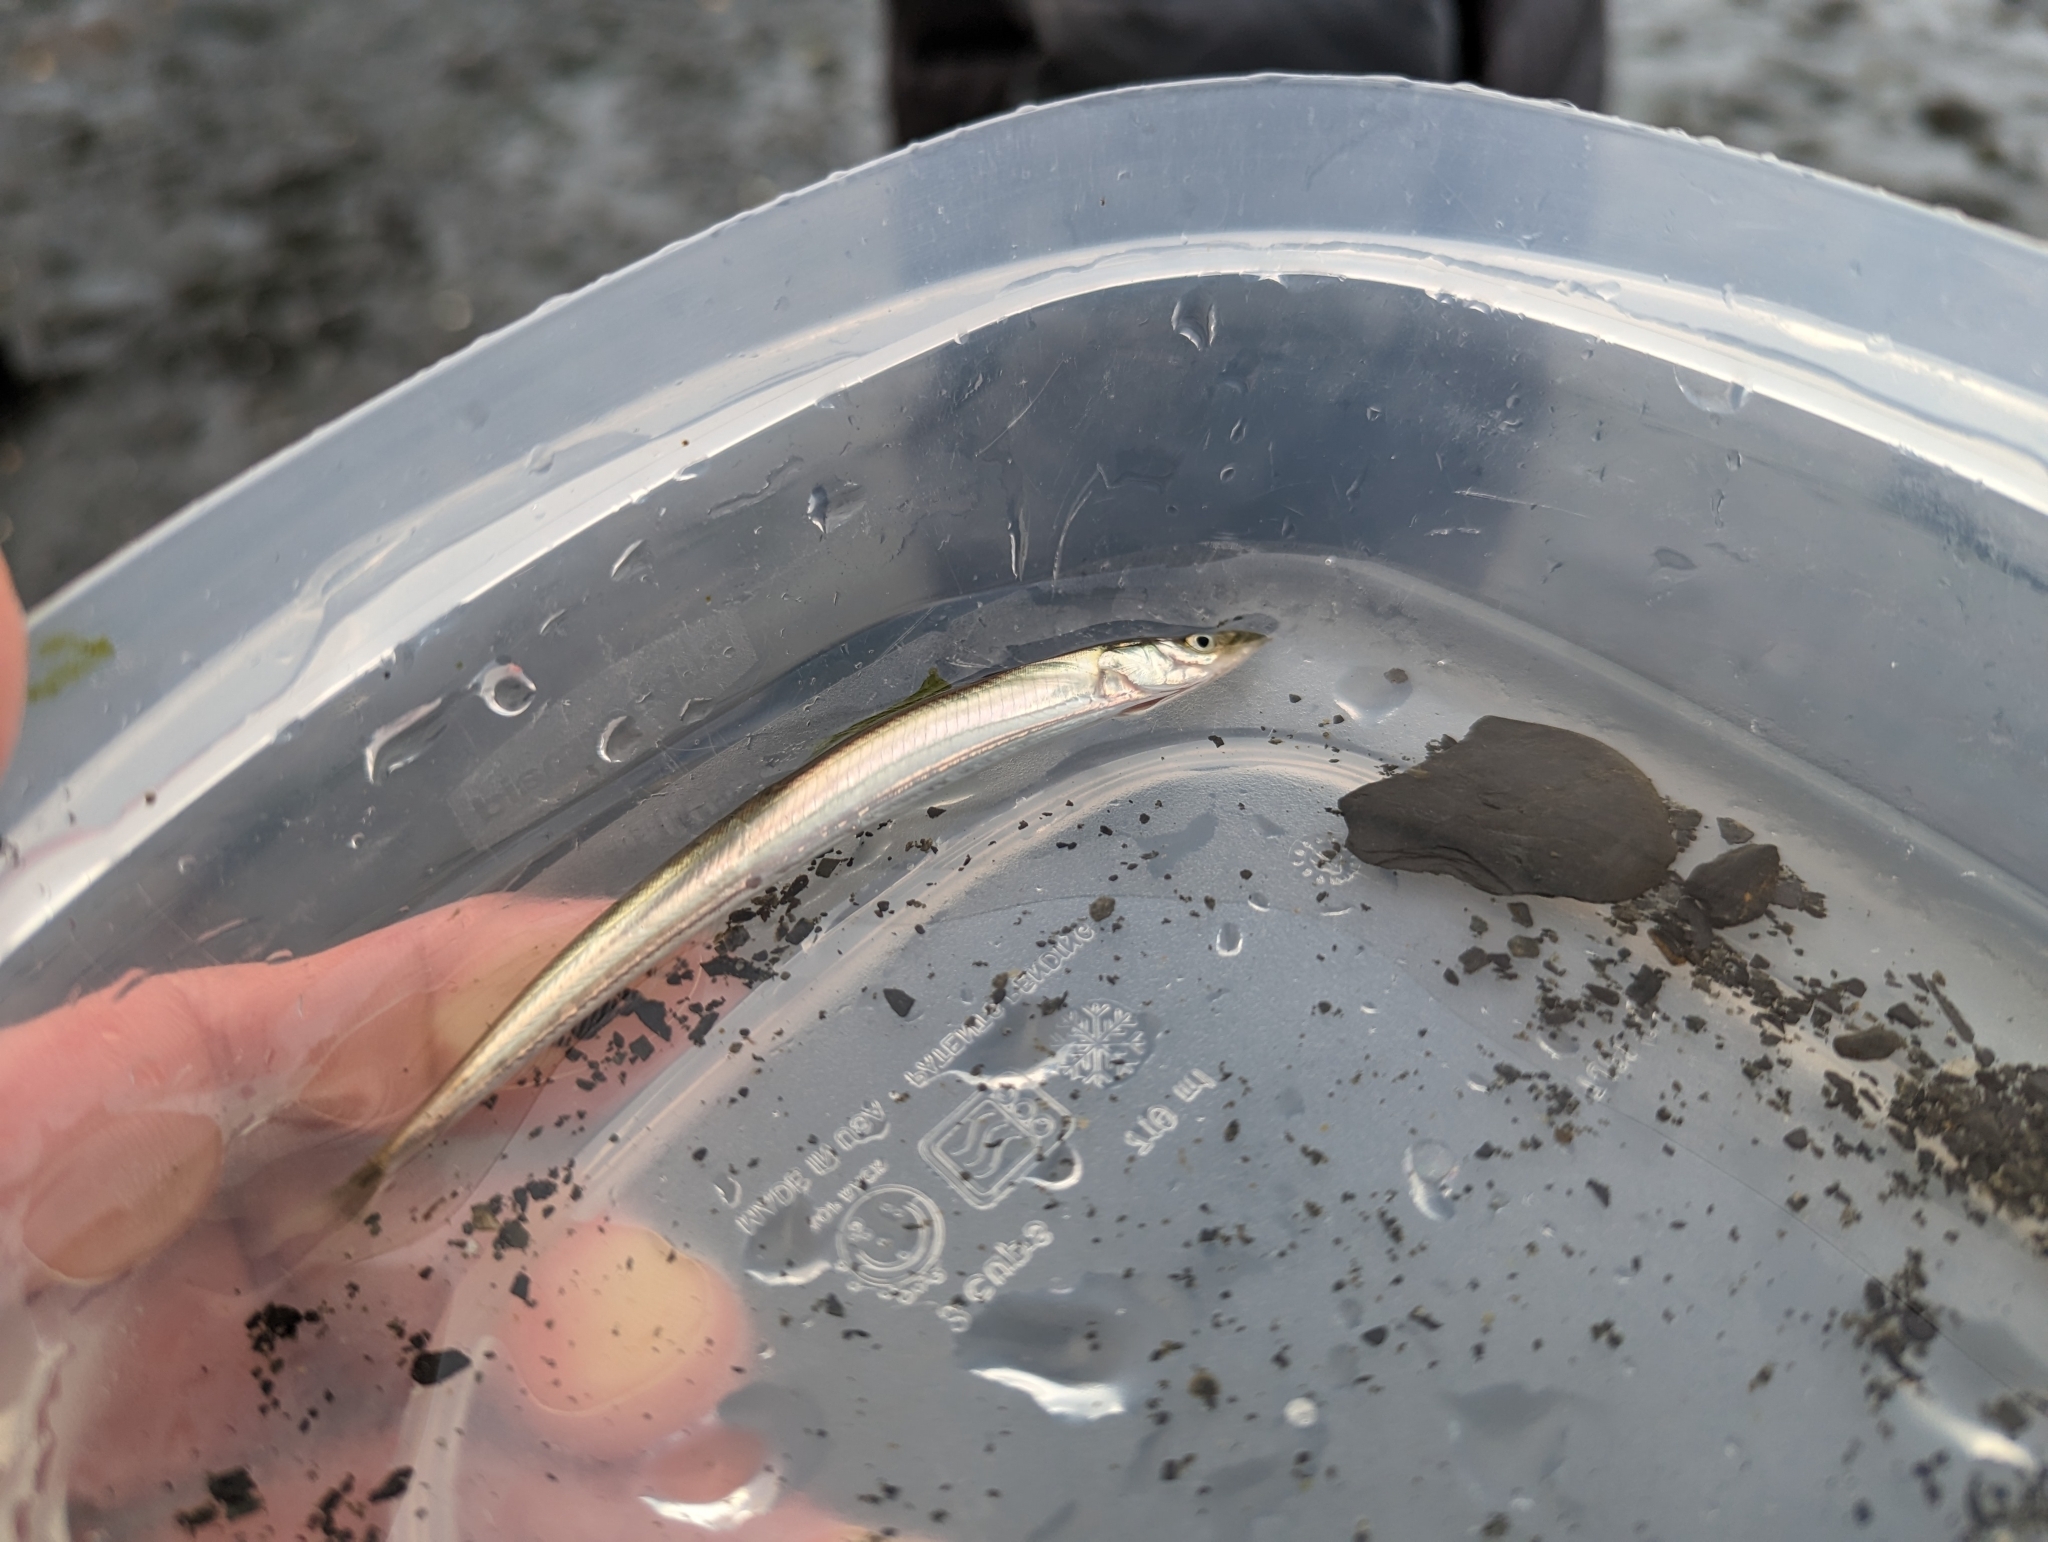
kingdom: Animalia
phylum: Chordata
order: Perciformes
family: Ammodytidae
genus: Ammodytes
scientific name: Ammodytes personatus
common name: Japanese sand lance
